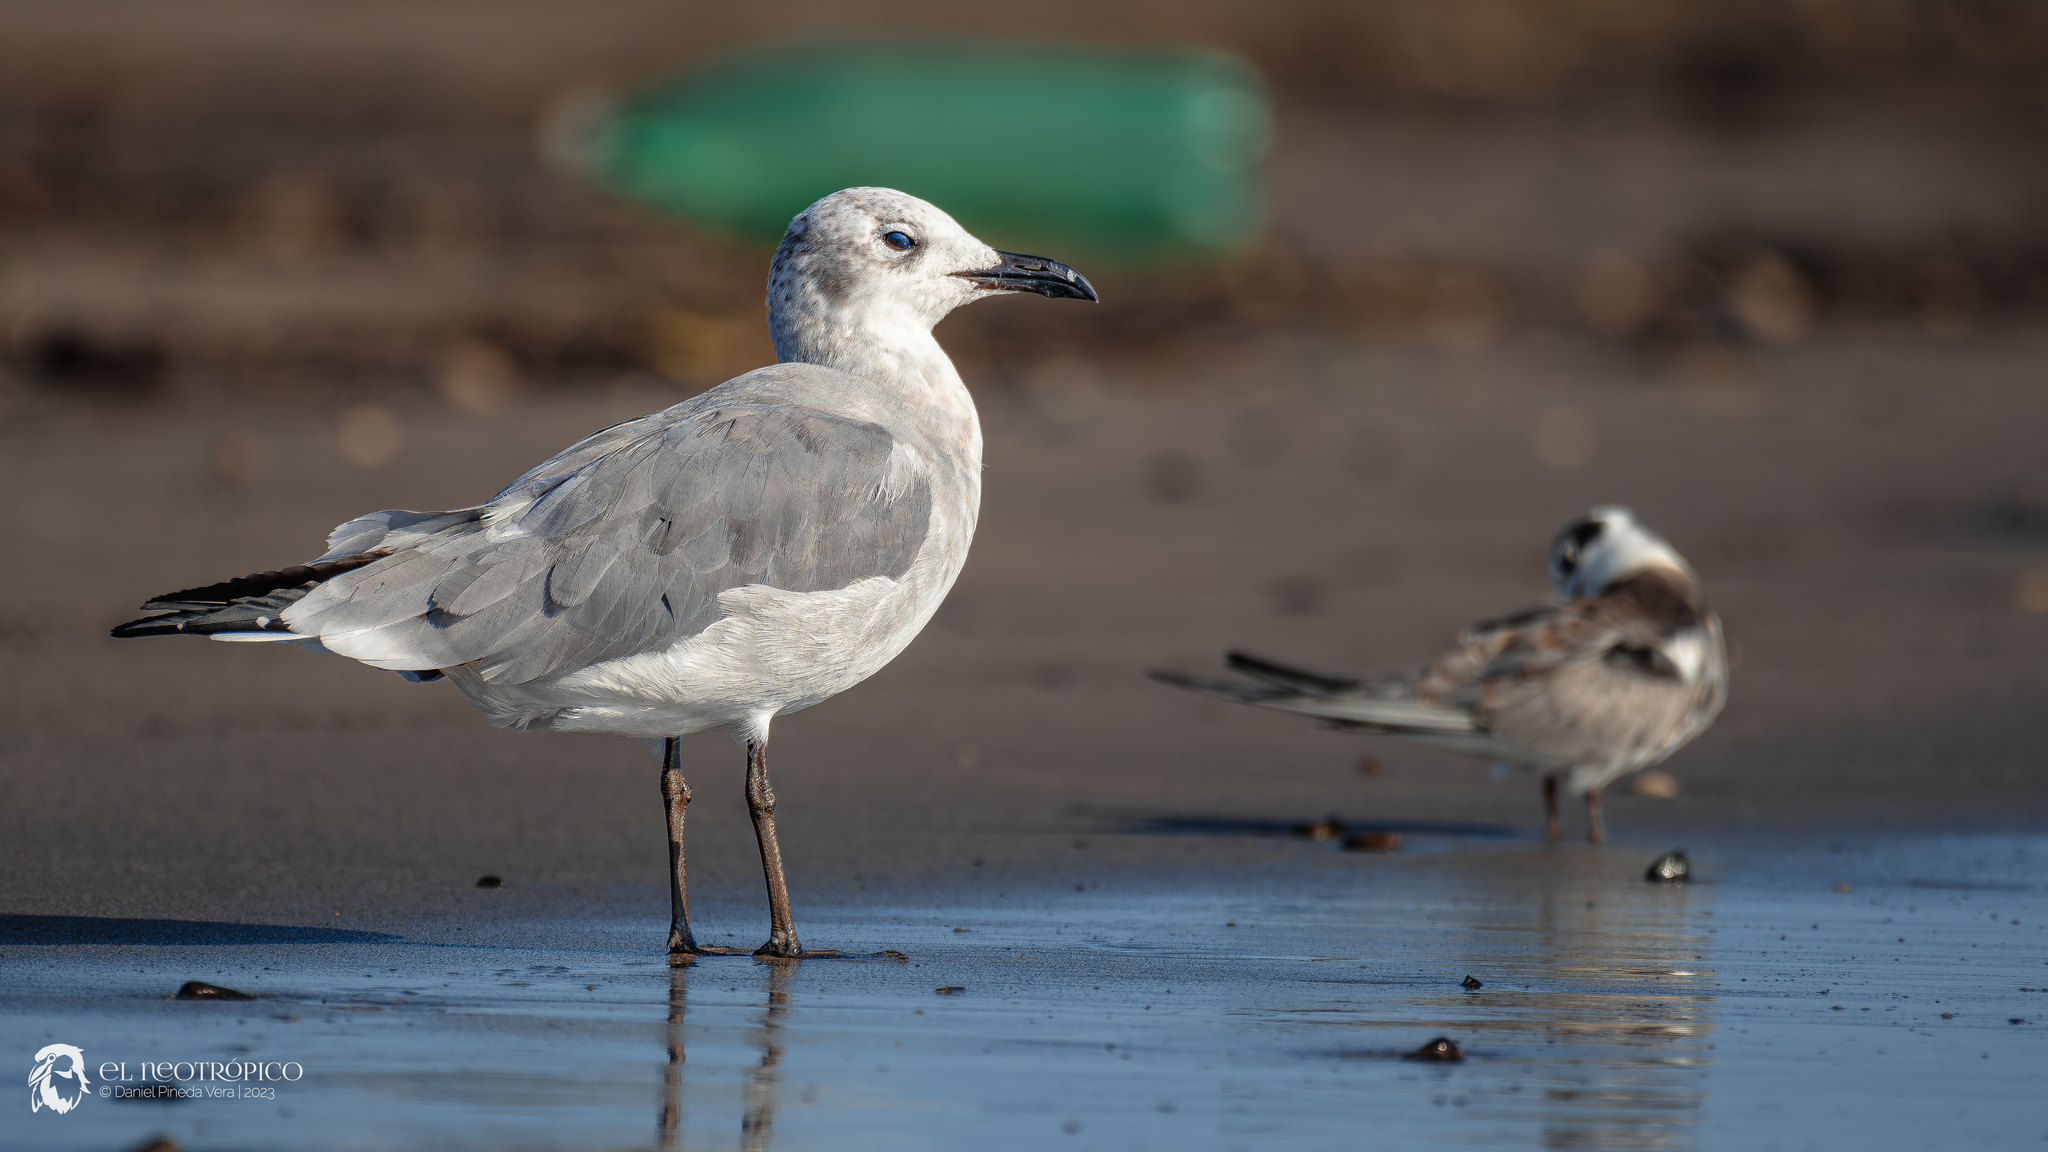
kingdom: Animalia
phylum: Chordata
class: Aves
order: Charadriiformes
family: Laridae
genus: Leucophaeus
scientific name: Leucophaeus atricilla
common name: Laughing gull
